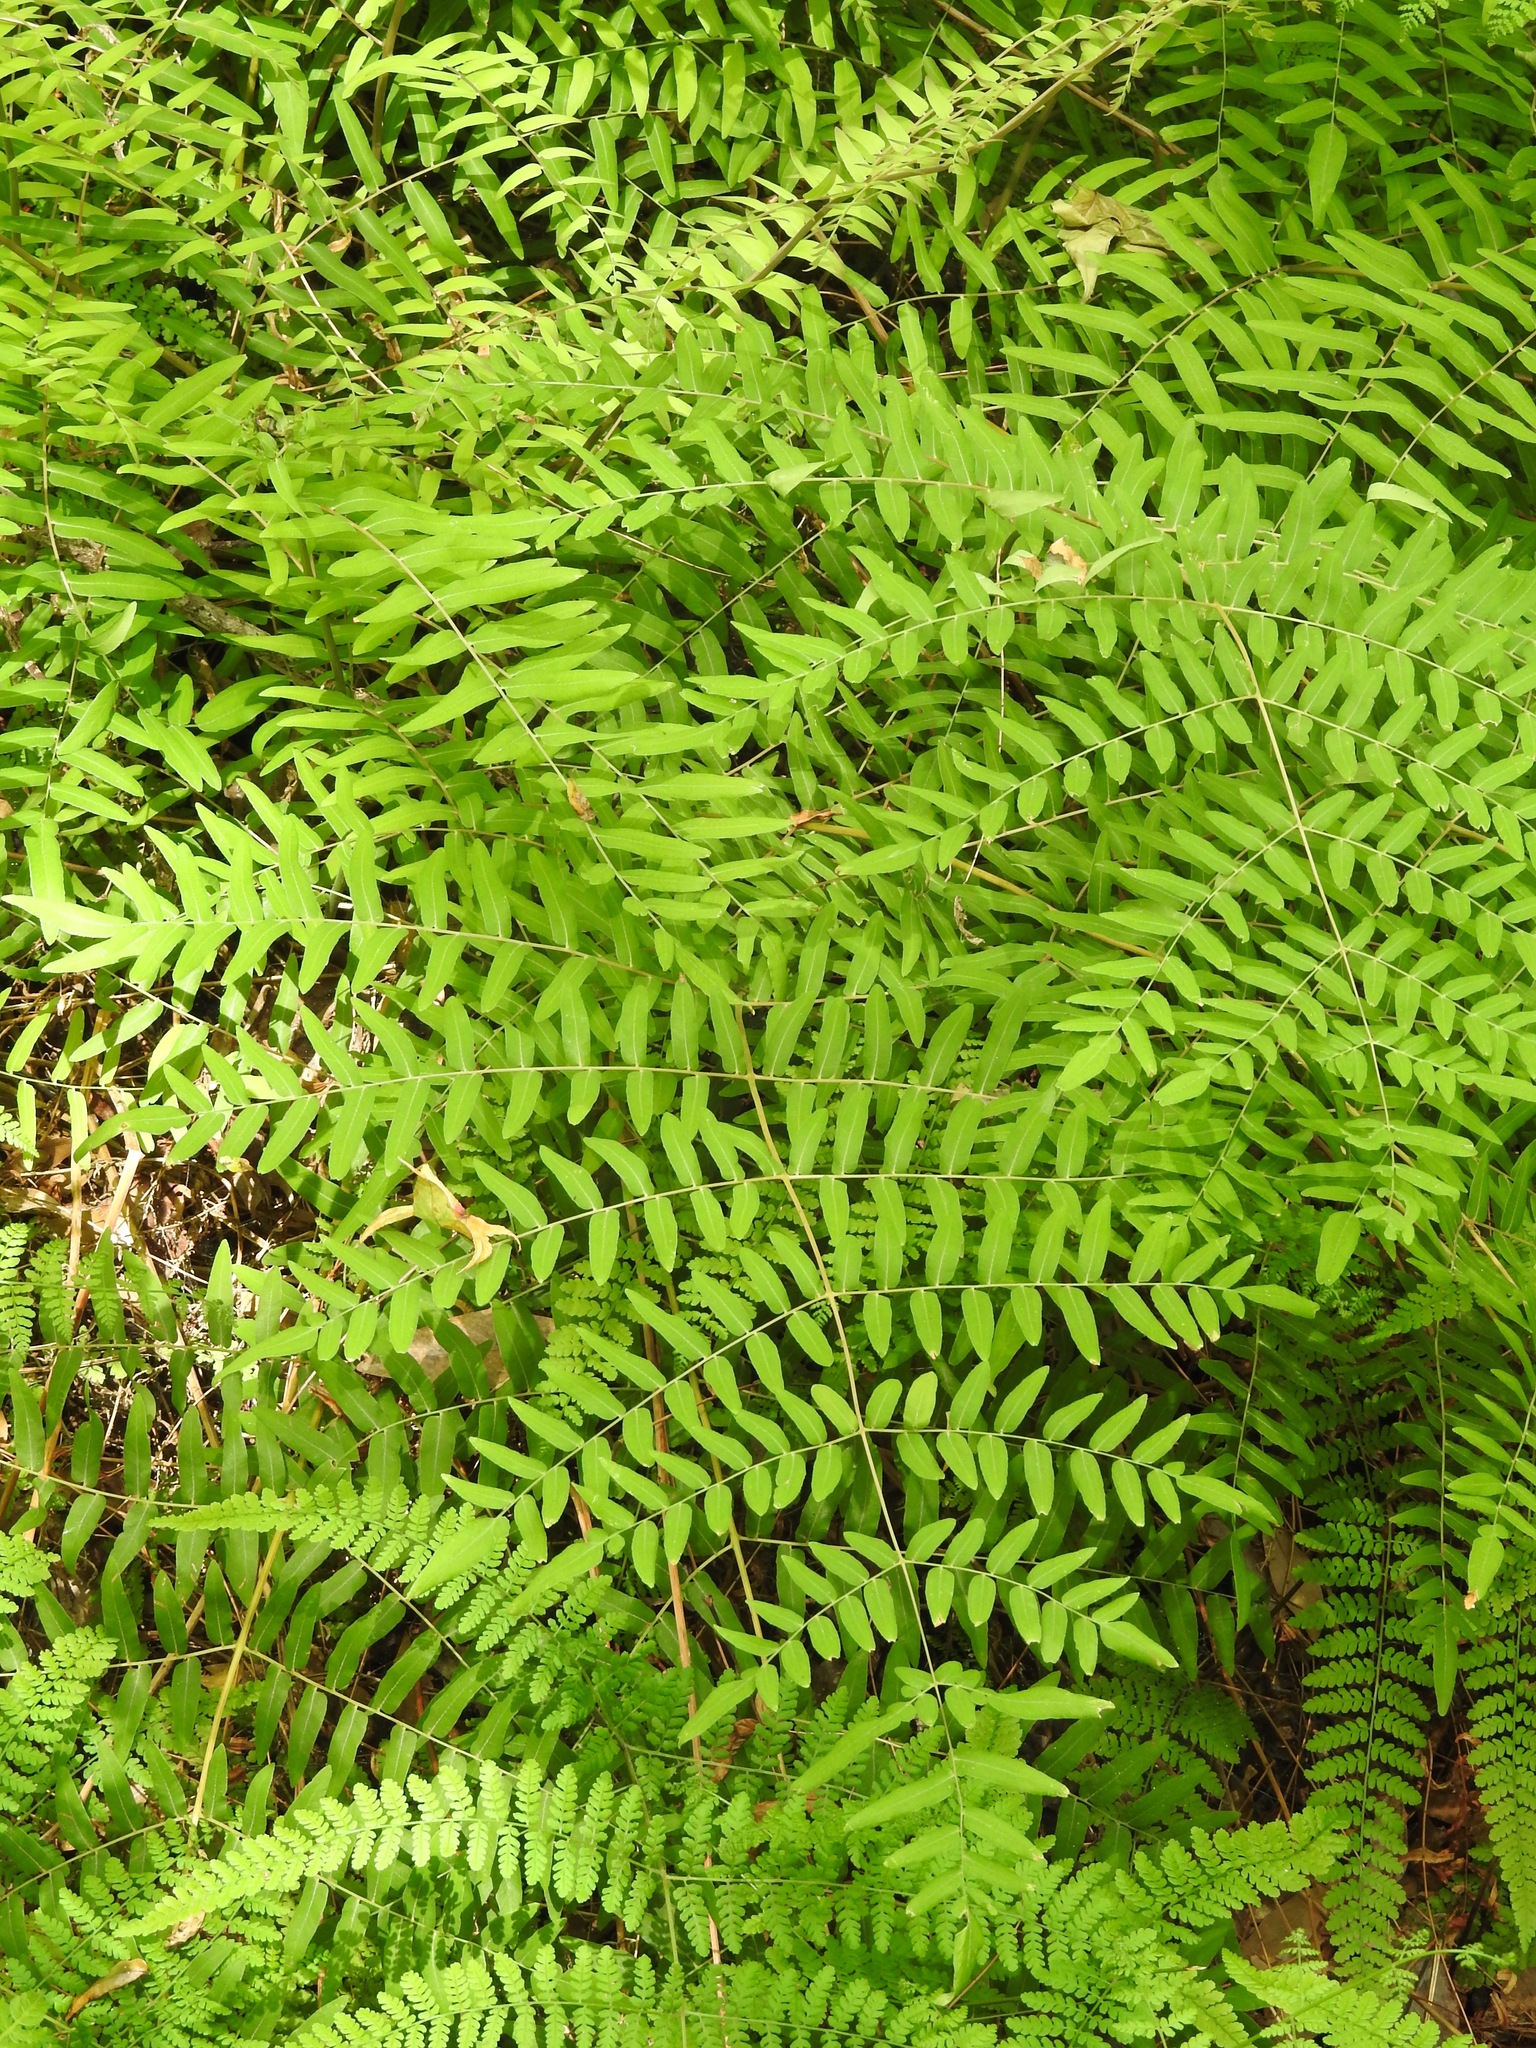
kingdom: Plantae
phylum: Tracheophyta
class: Polypodiopsida
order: Osmundales
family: Osmundaceae
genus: Osmunda
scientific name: Osmunda spectabilis
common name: American royal fern
